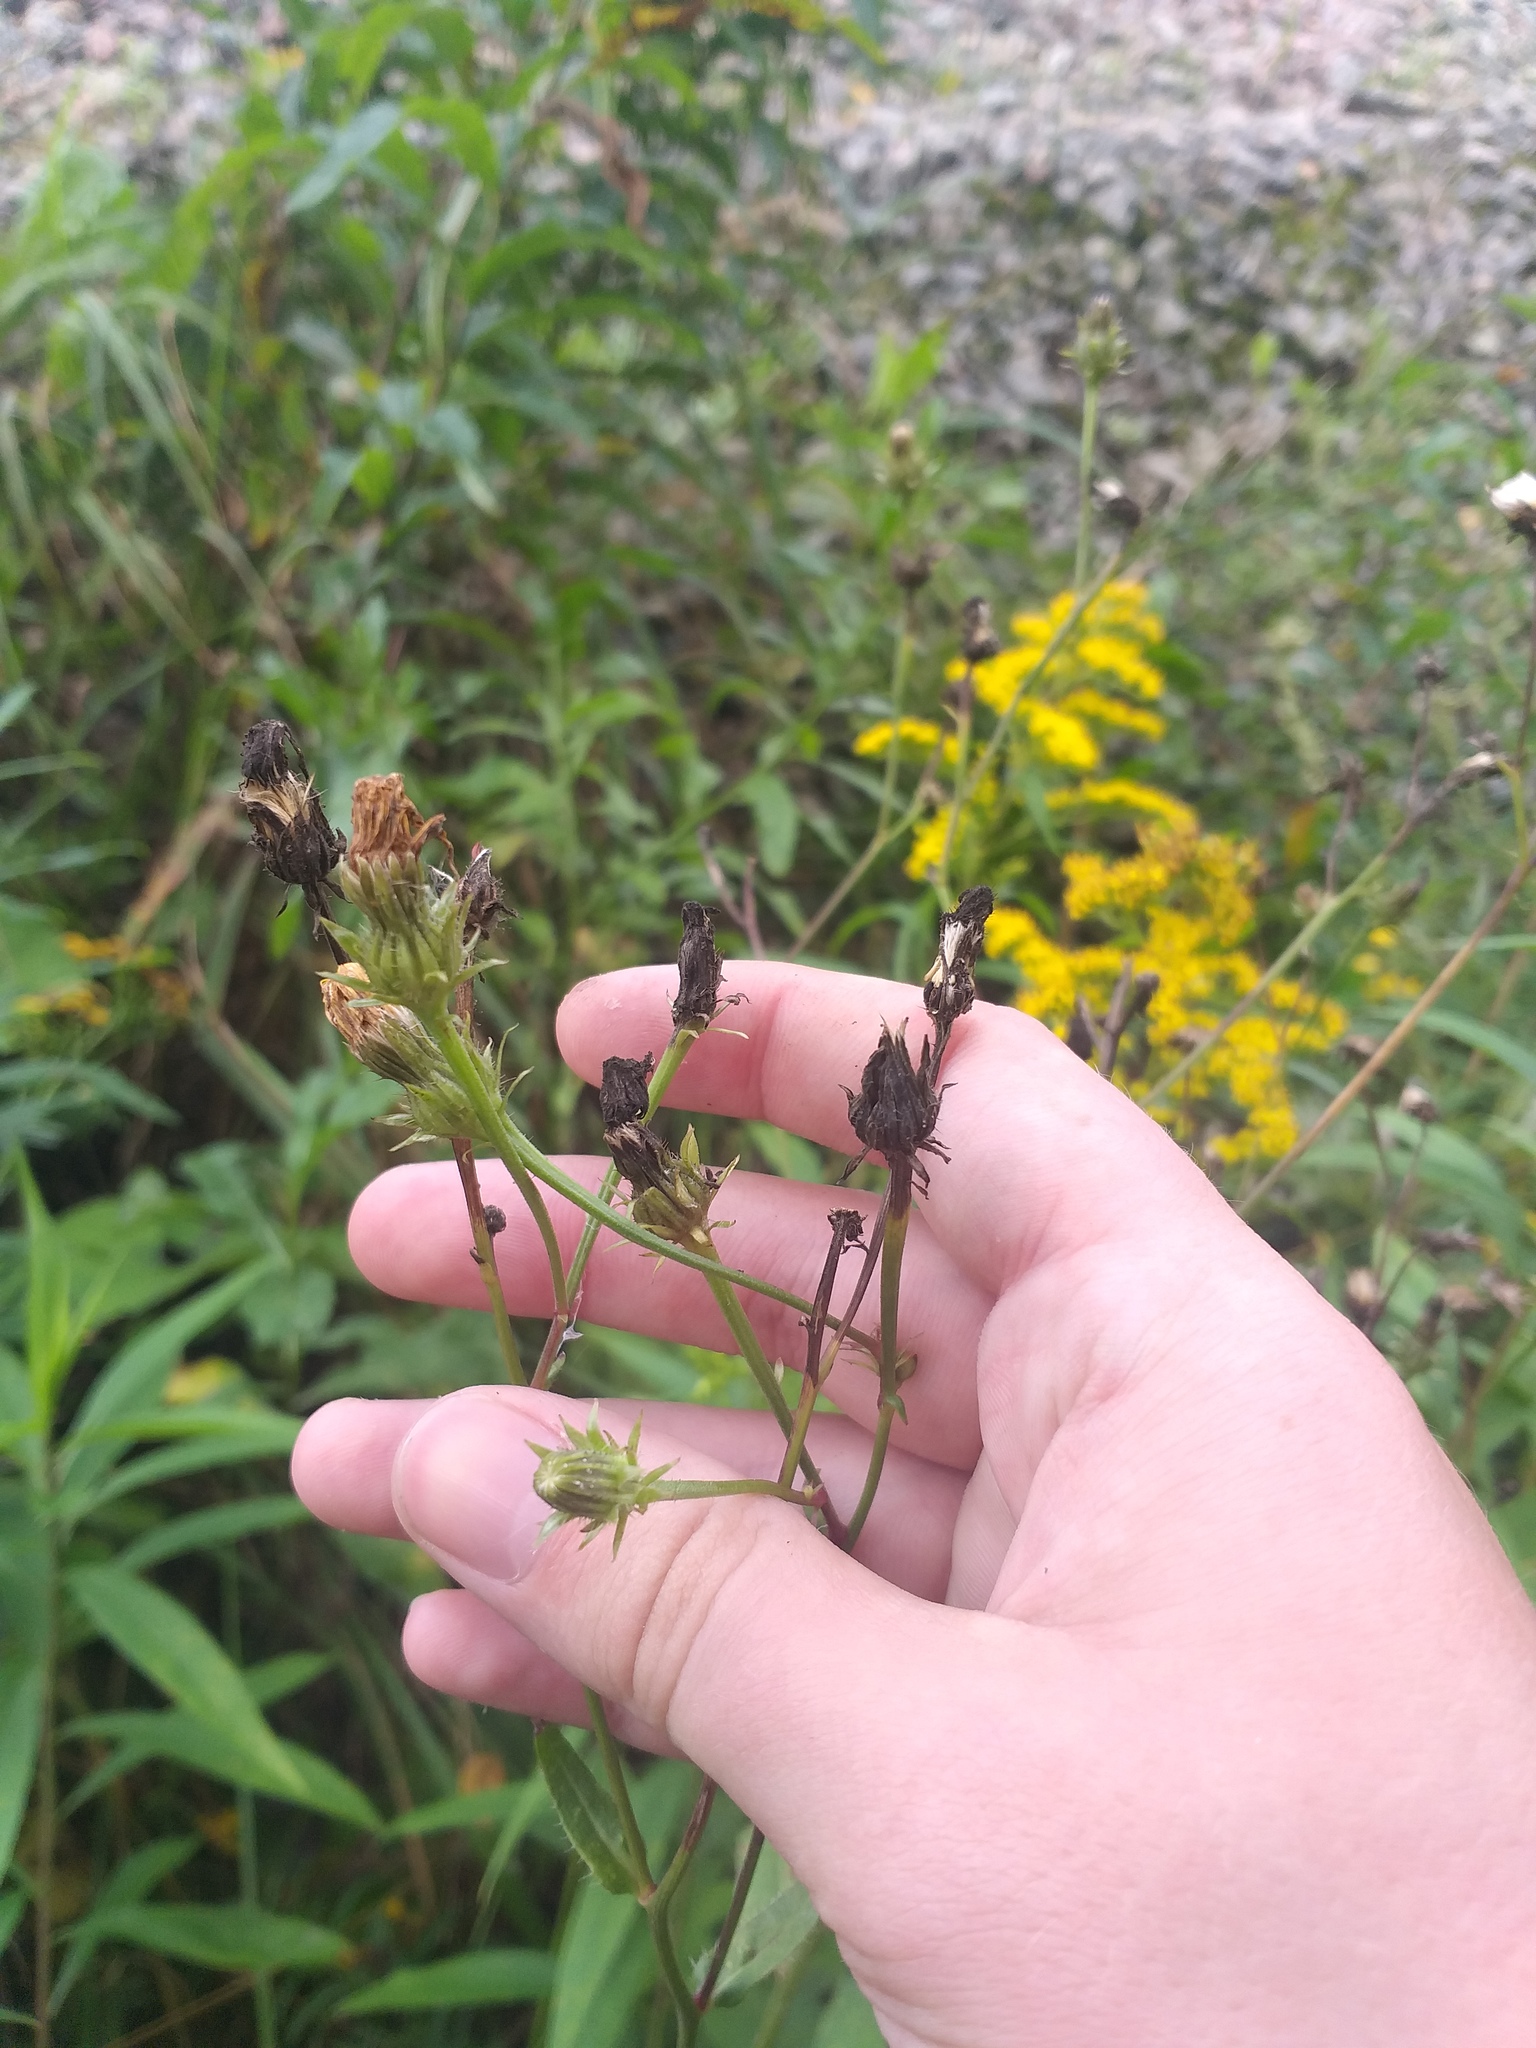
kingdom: Plantae
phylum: Tracheophyta
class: Magnoliopsida
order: Asterales
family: Asteraceae
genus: Picris
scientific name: Picris hieracioides
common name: Hawkweed oxtongue
